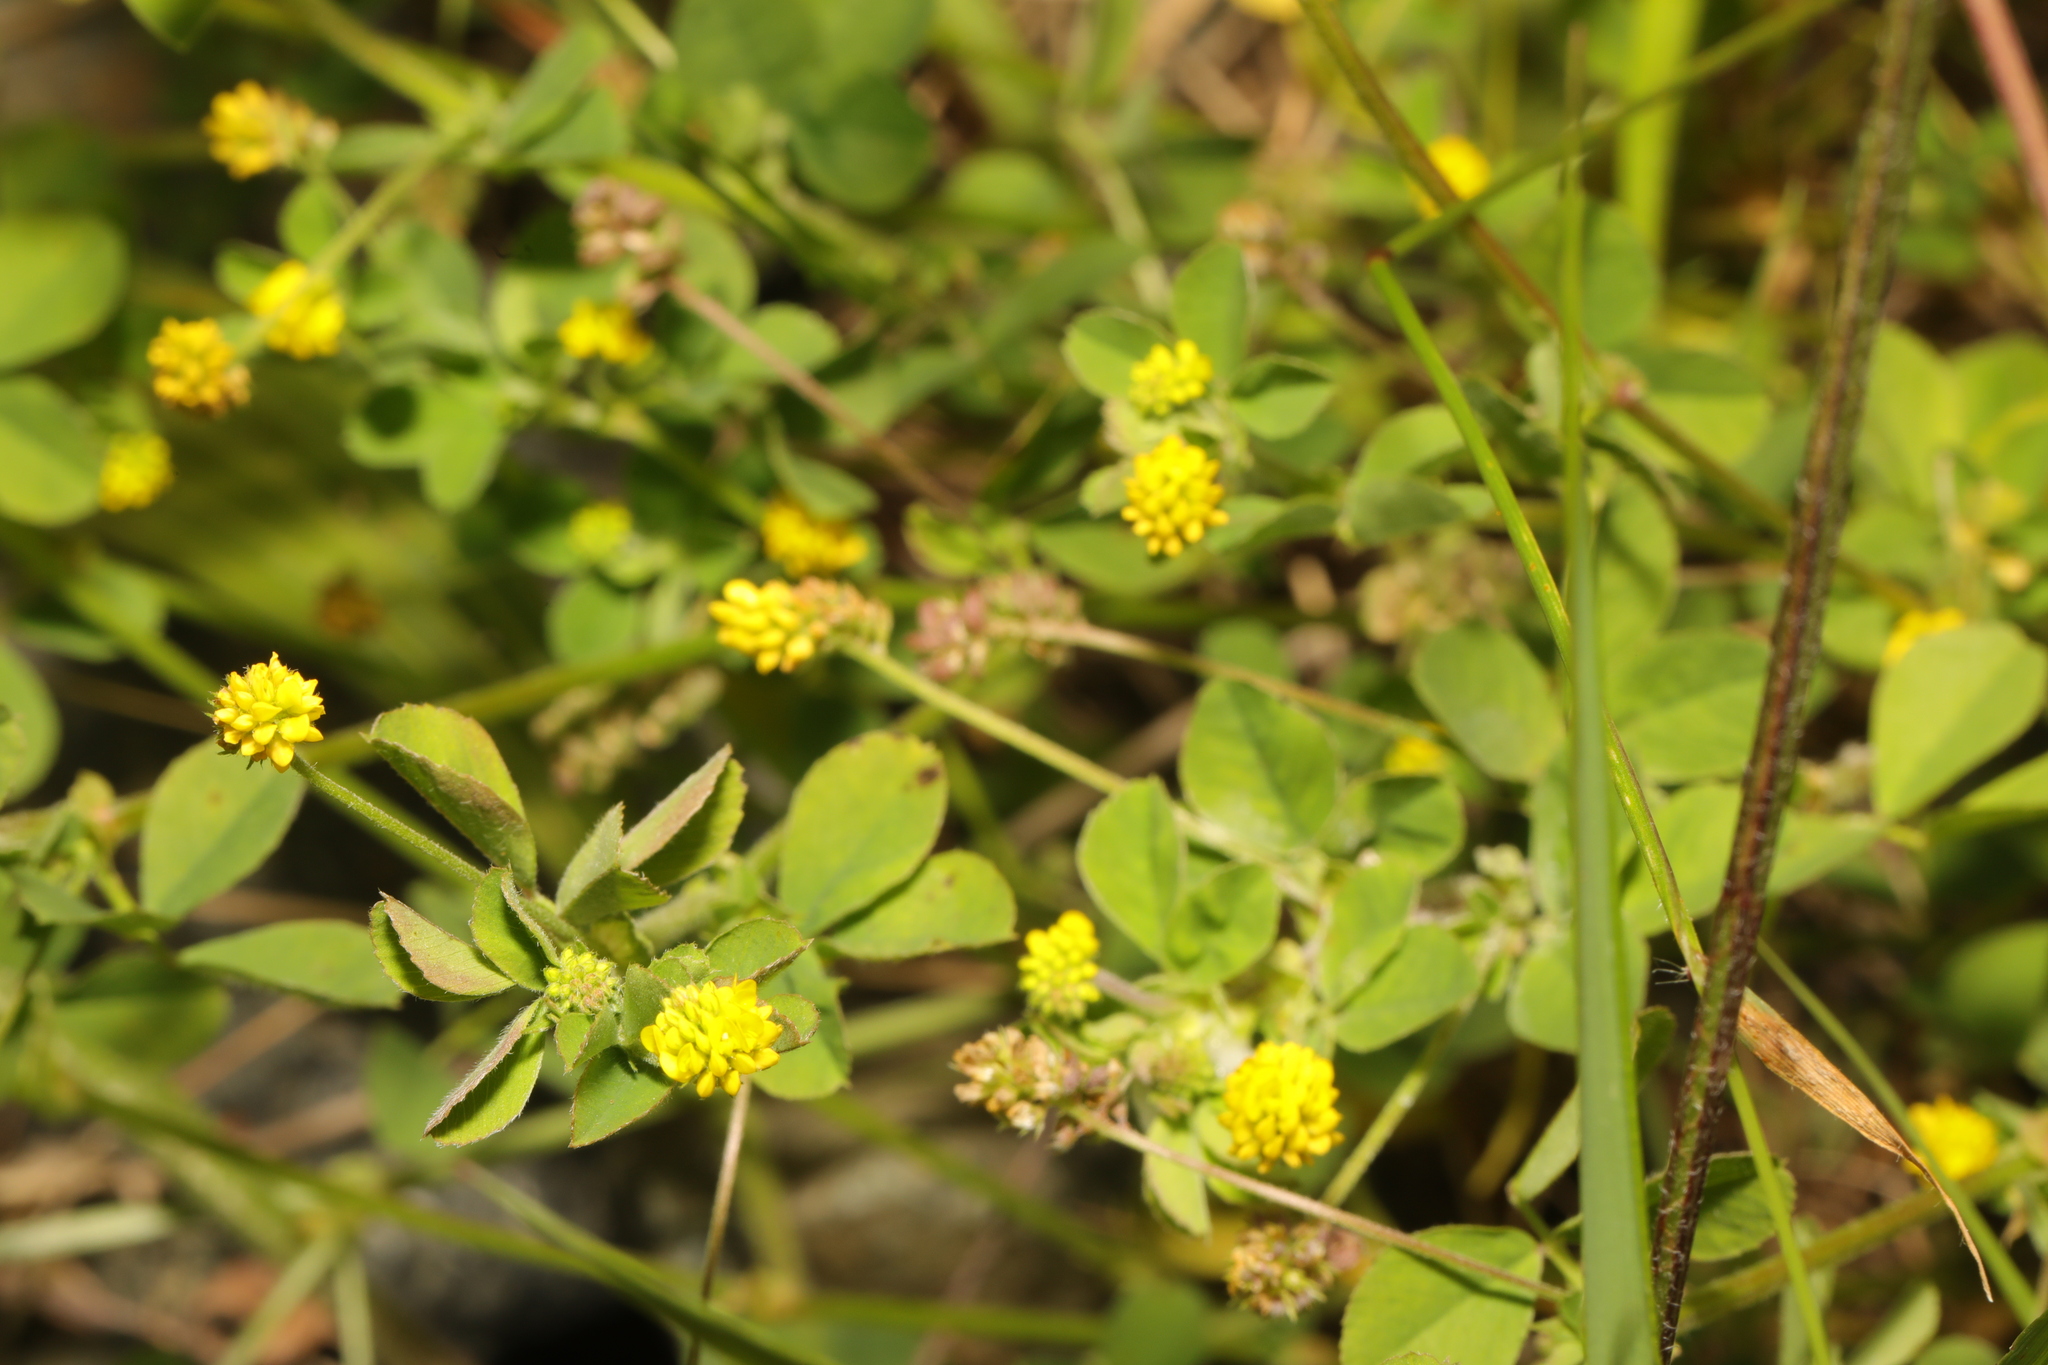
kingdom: Plantae
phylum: Tracheophyta
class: Magnoliopsida
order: Fabales
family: Fabaceae
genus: Medicago
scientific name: Medicago lupulina
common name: Black medick
